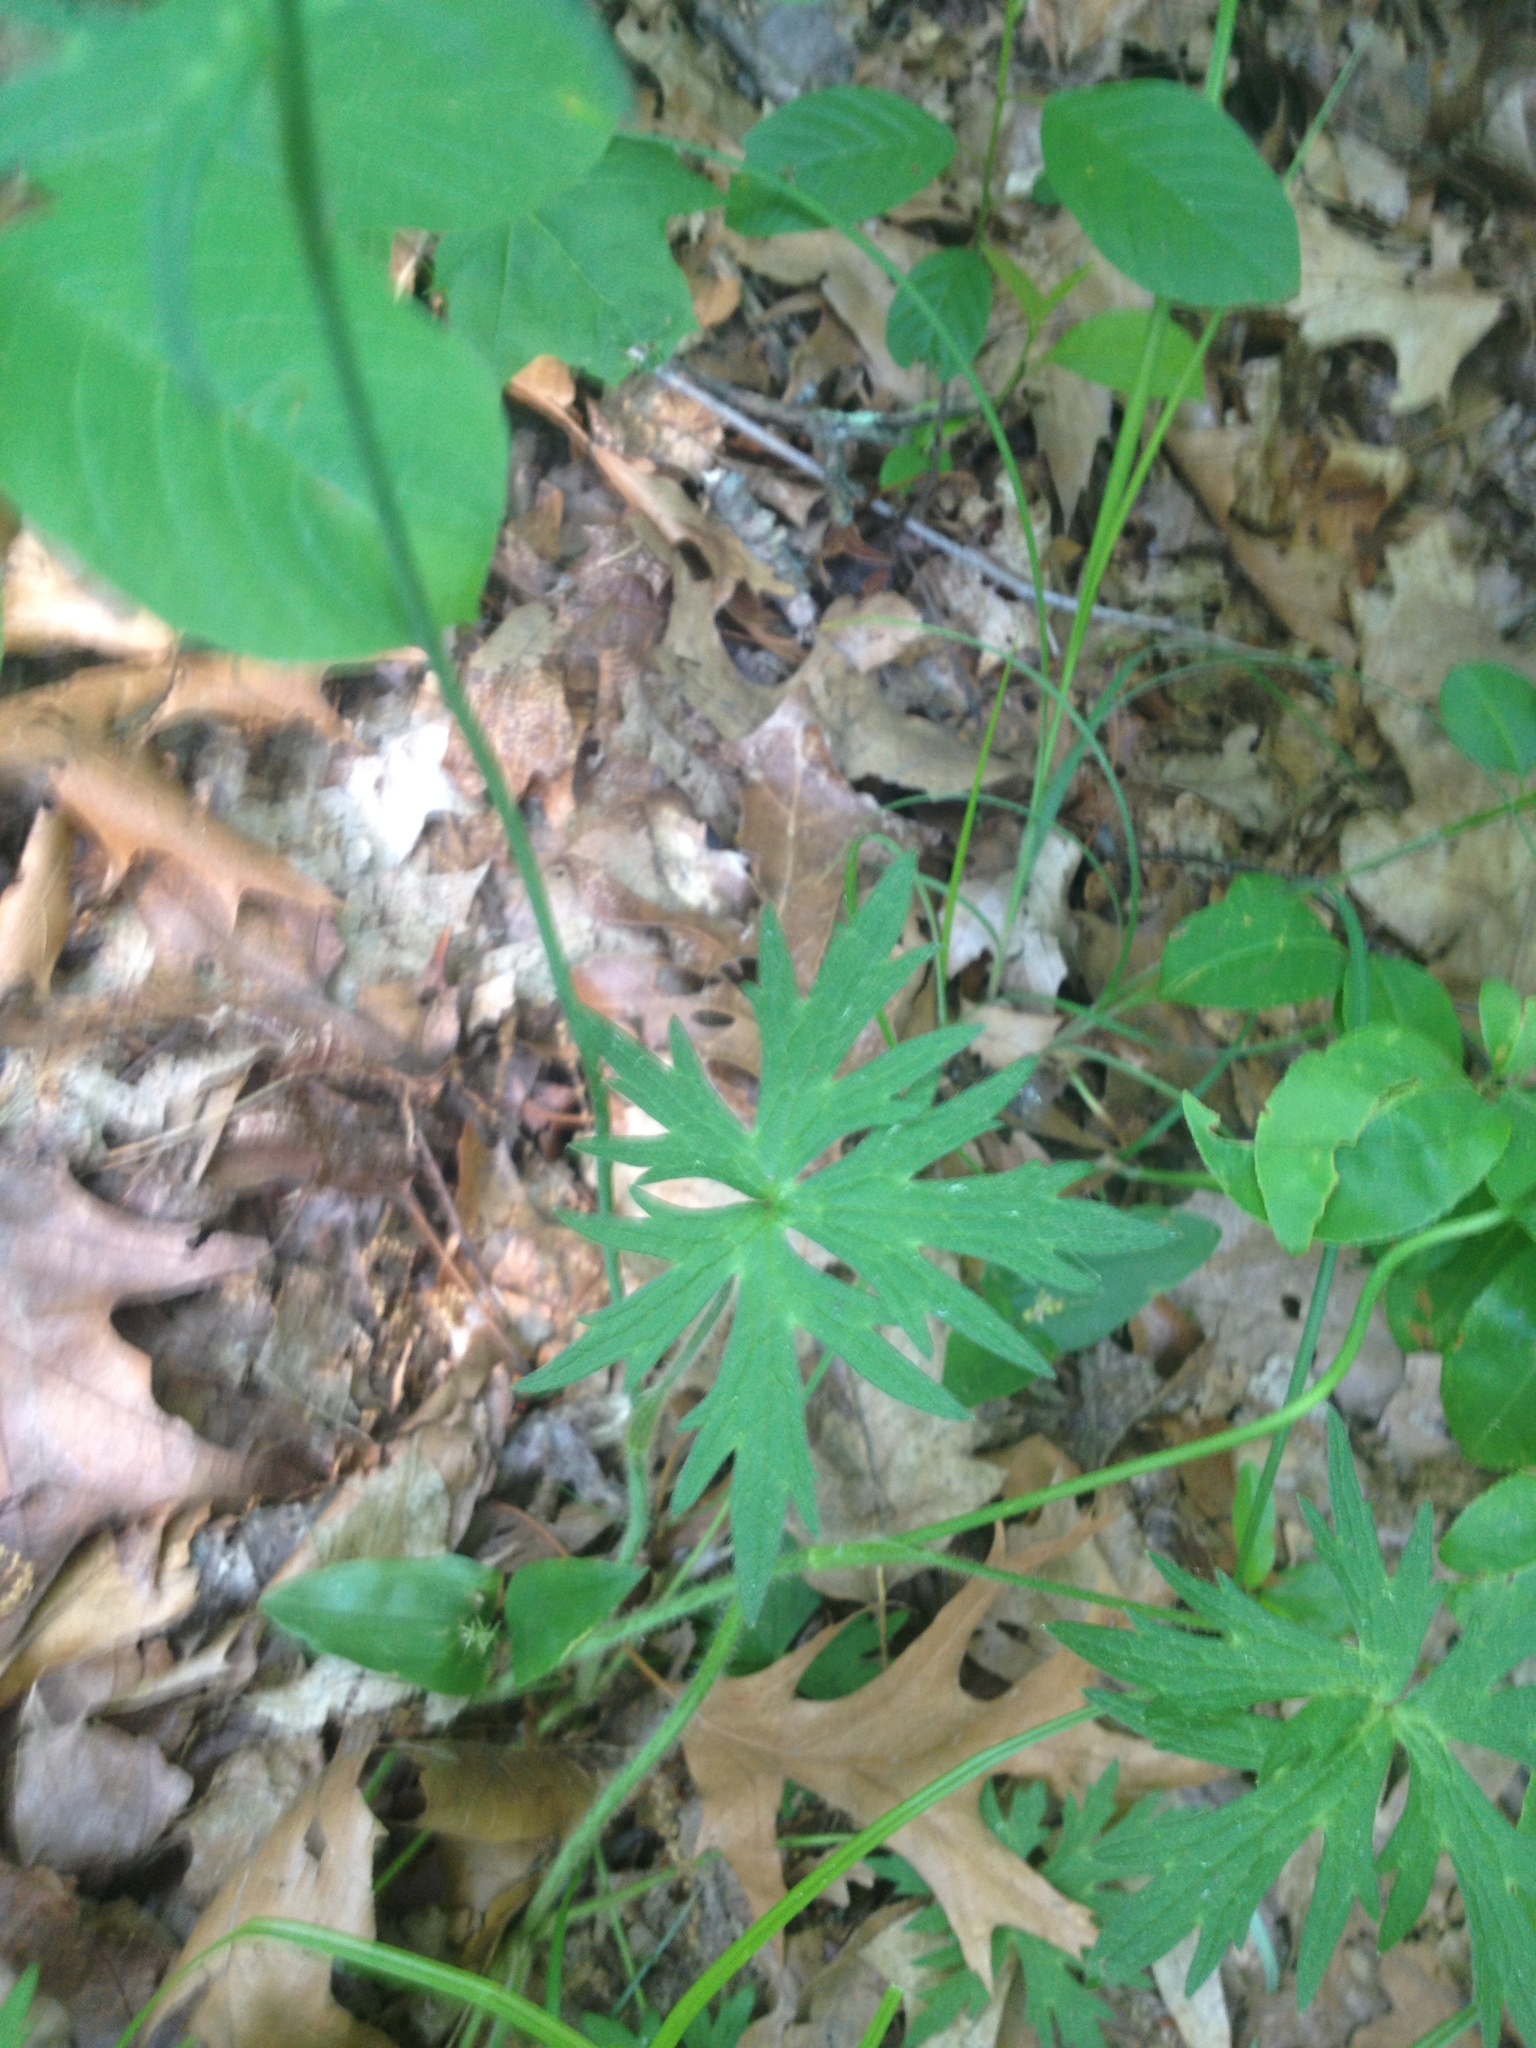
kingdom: Plantae
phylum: Tracheophyta
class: Magnoliopsida
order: Ranunculales
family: Ranunculaceae
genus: Ranunculus
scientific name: Ranunculus acris
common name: Meadow buttercup
